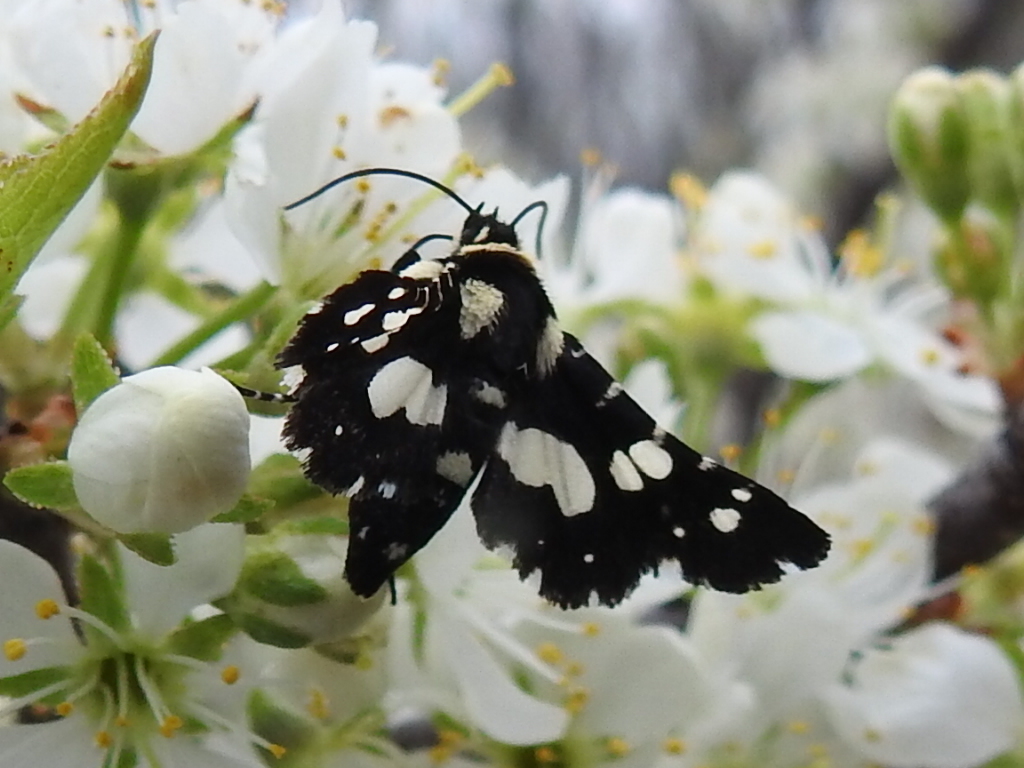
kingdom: Animalia
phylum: Arthropoda
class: Insecta
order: Lepidoptera
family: Thyrididae
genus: Pseudothyris
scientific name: Pseudothyris sepulchralis
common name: Mournful thyris moth
